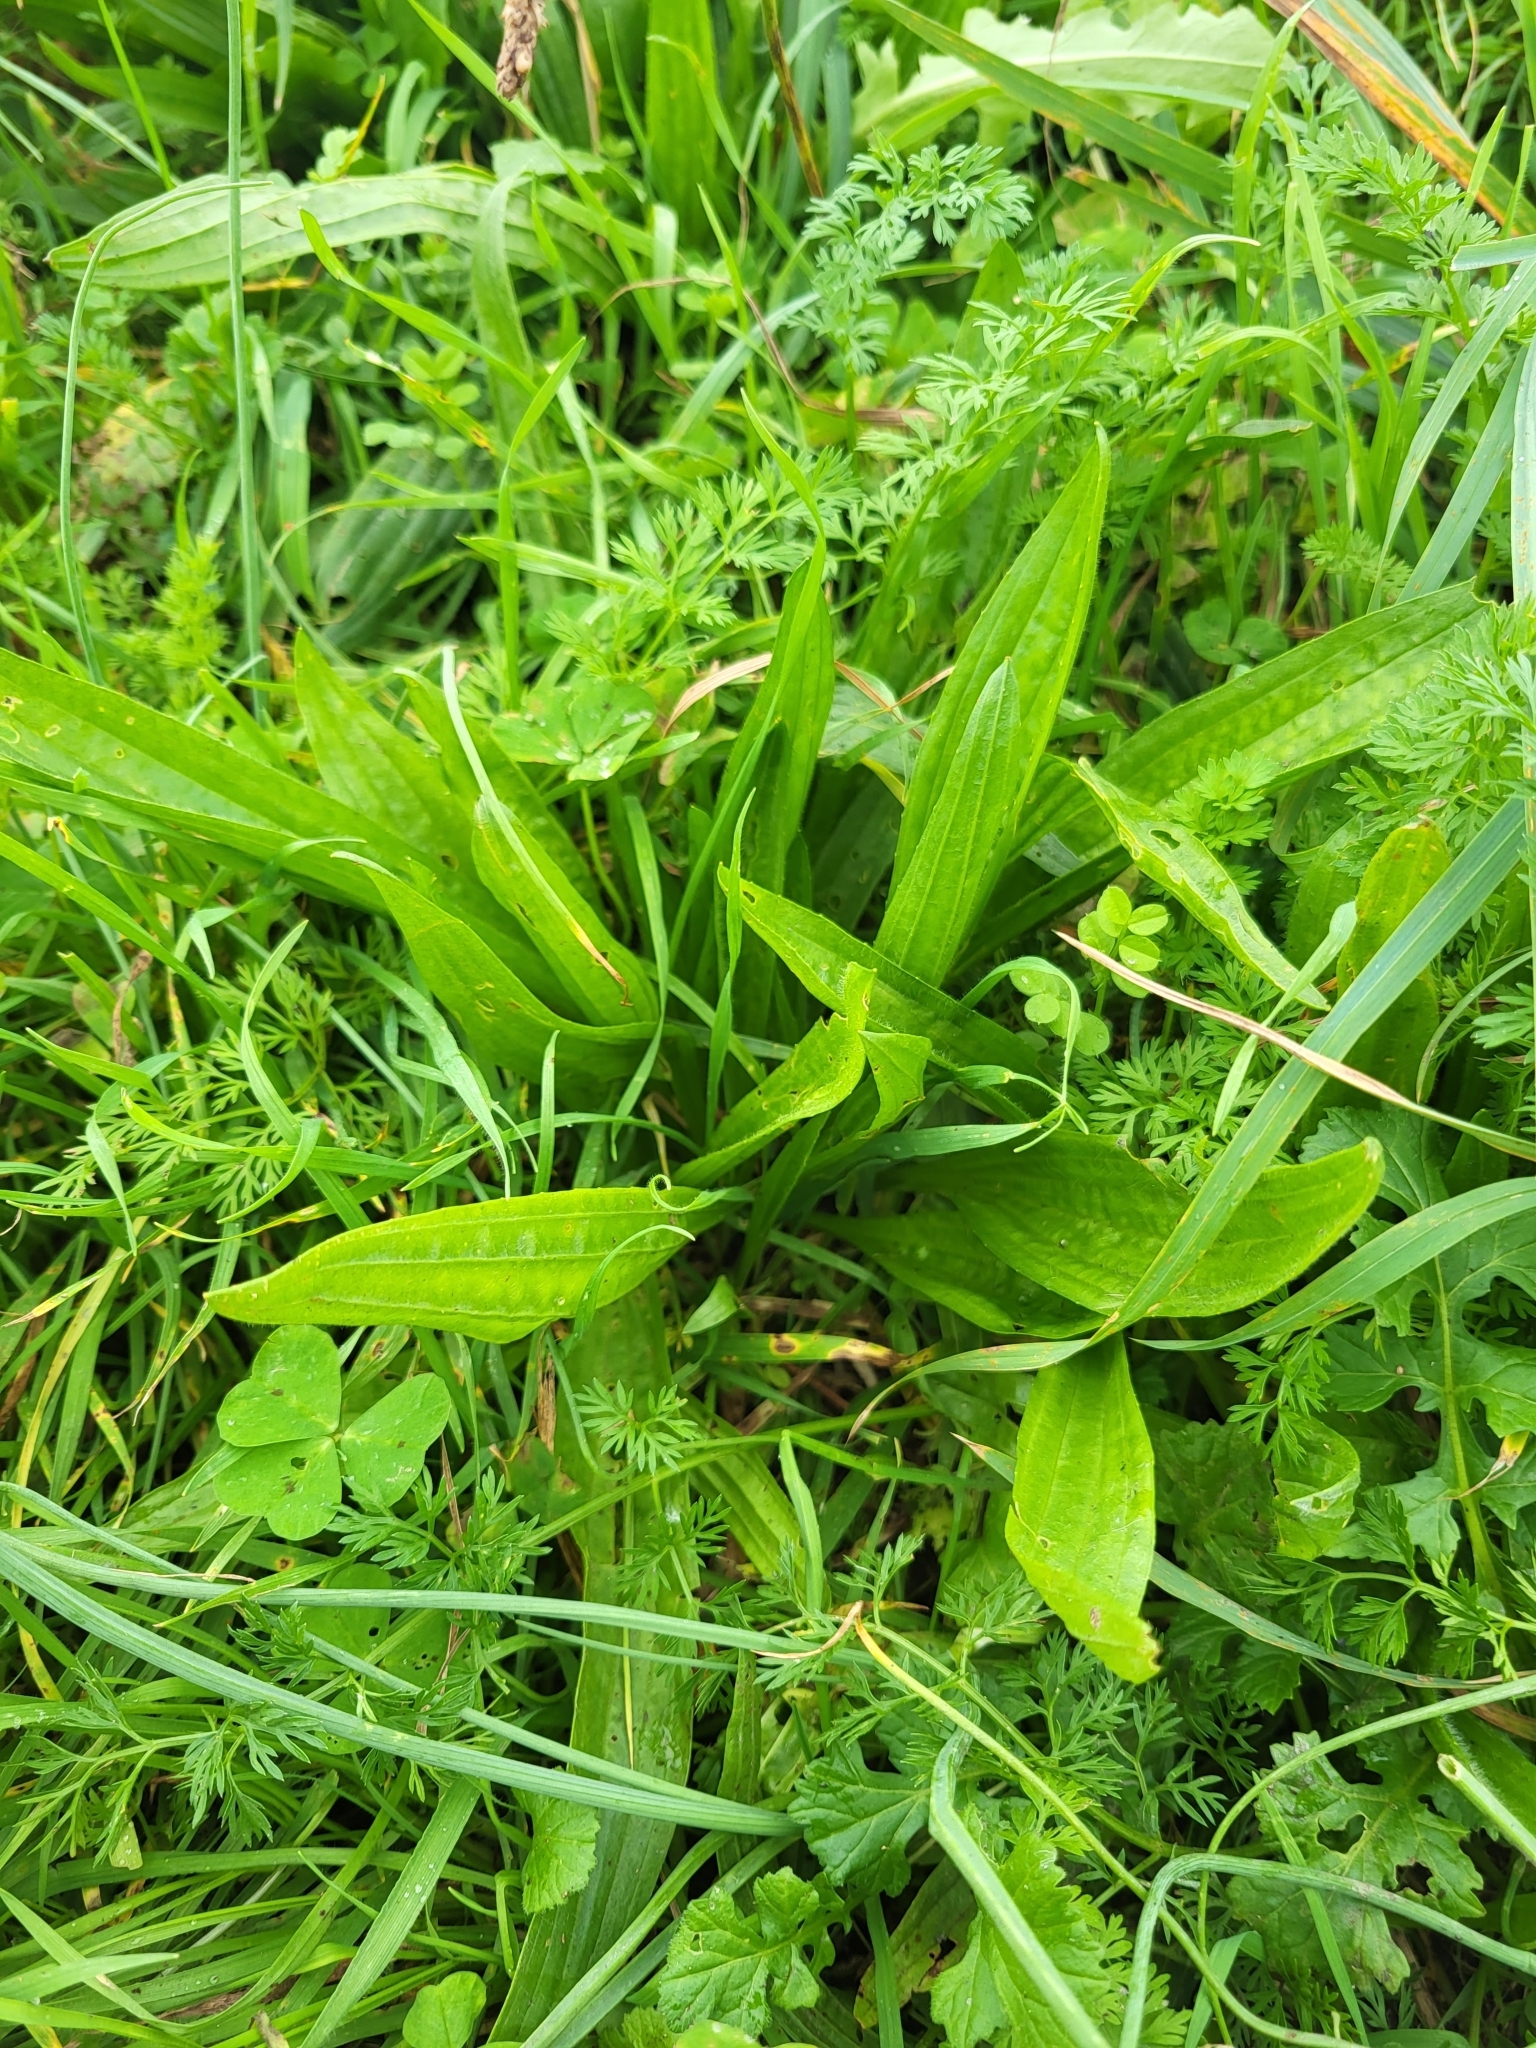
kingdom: Plantae
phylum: Tracheophyta
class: Magnoliopsida
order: Lamiales
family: Plantaginaceae
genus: Plantago
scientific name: Plantago lanceolata
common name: Ribwort plantain
